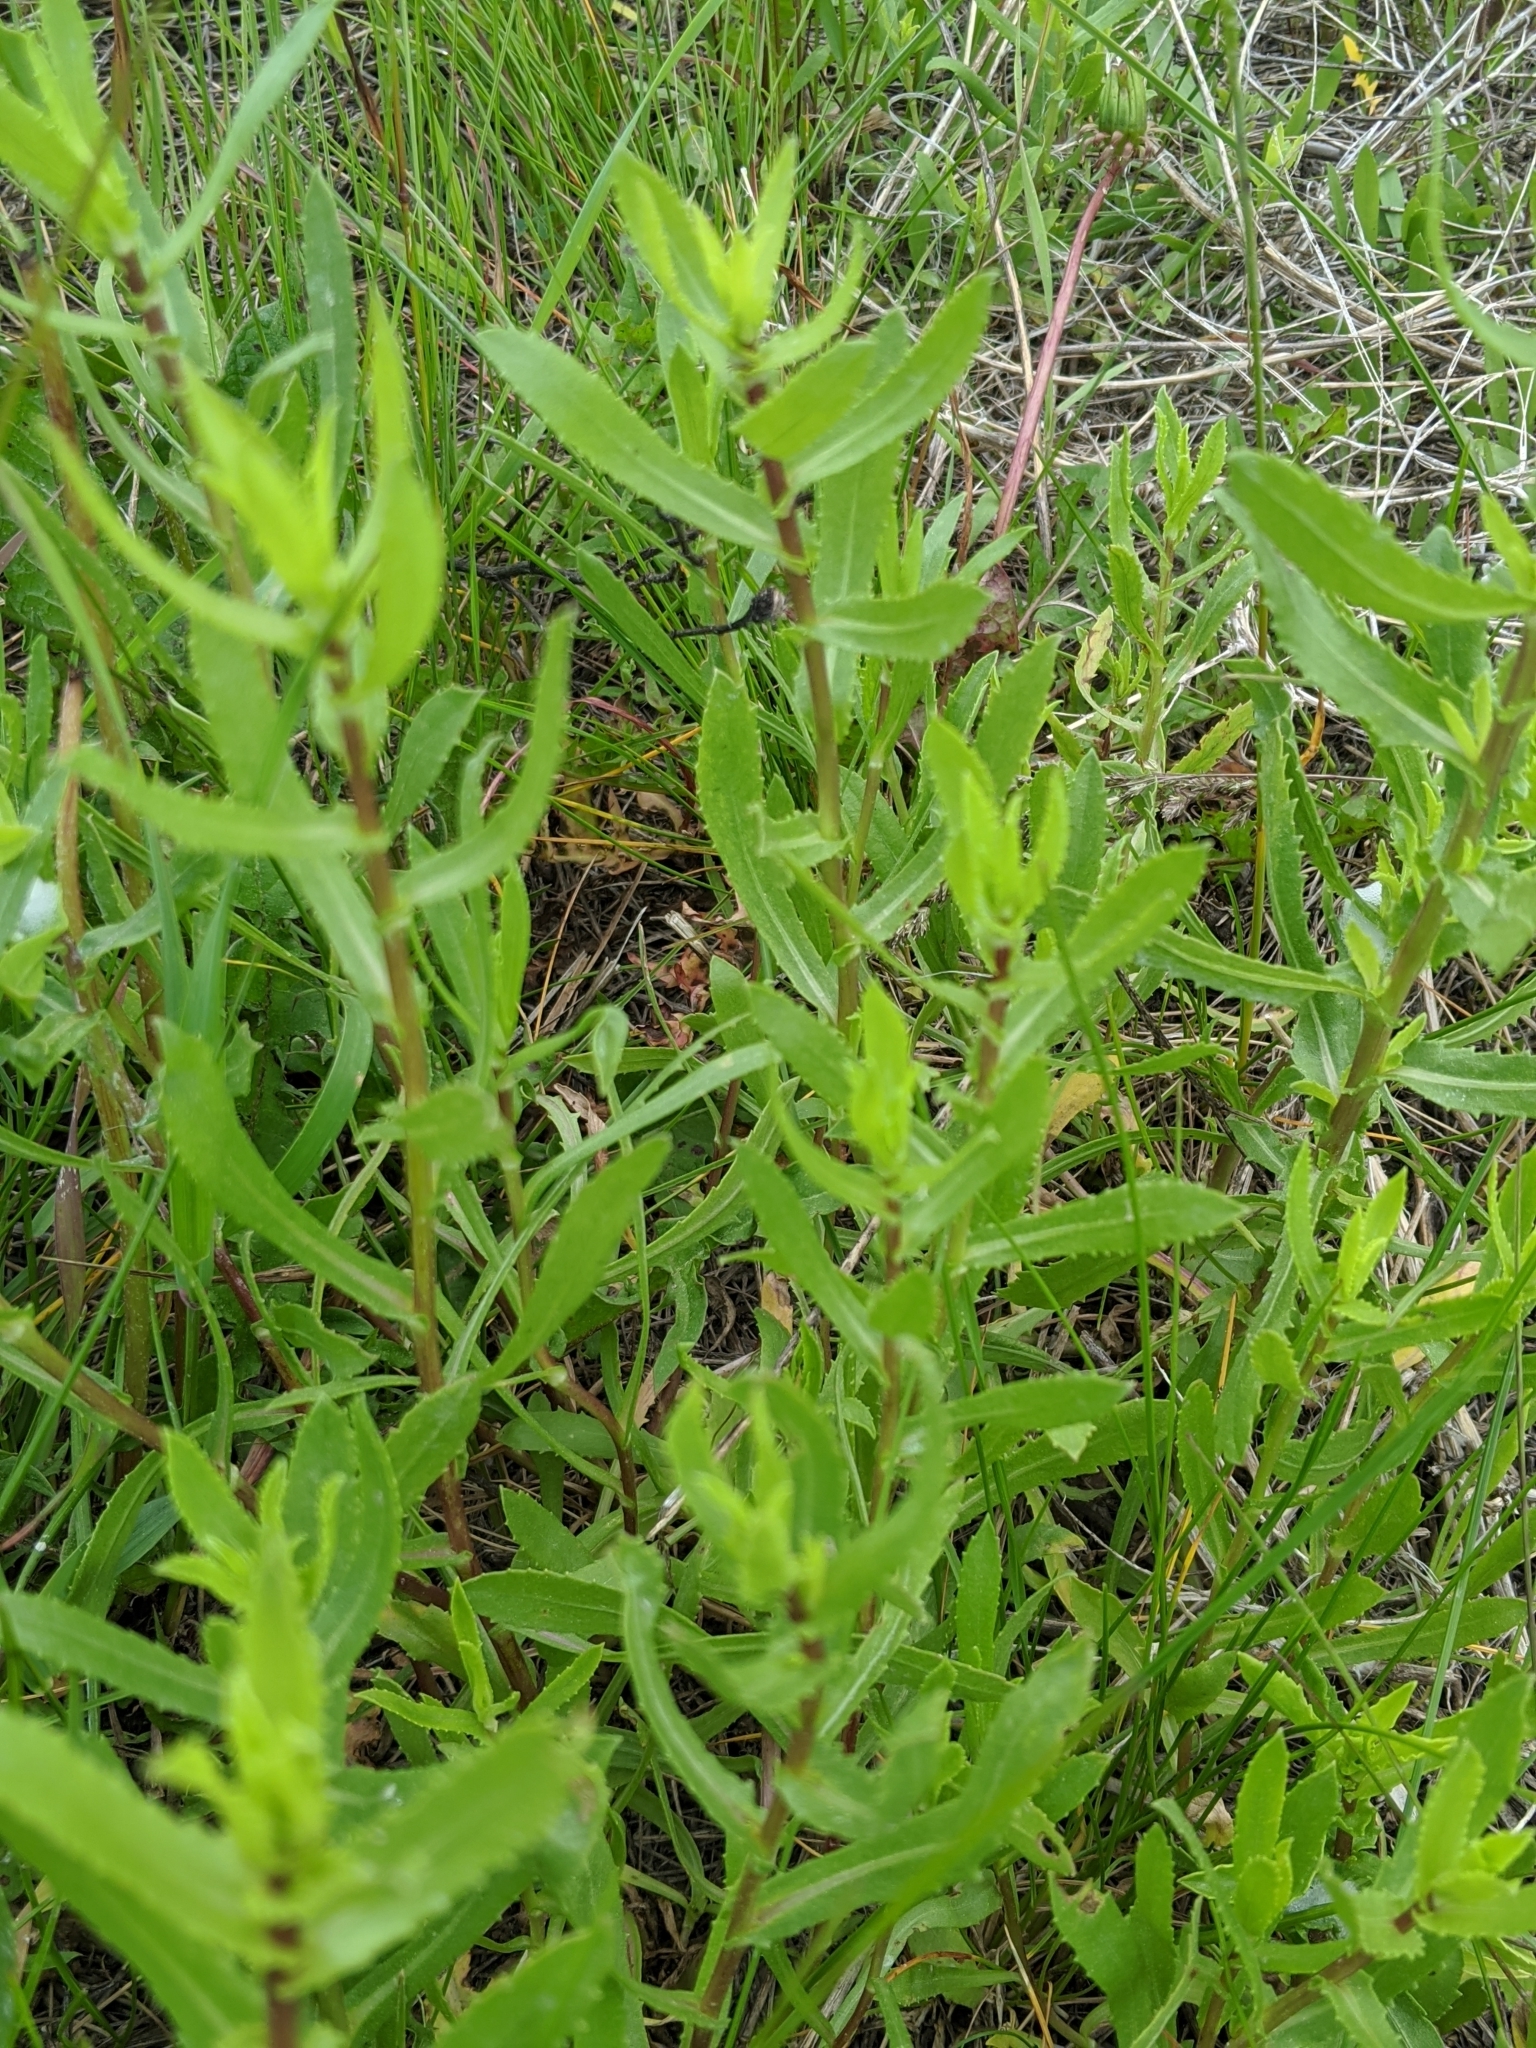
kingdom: Plantae
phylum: Tracheophyta
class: Magnoliopsida
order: Asterales
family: Asteraceae
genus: Grindelia
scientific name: Grindelia squarrosa
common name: Curly-cup gumweed
